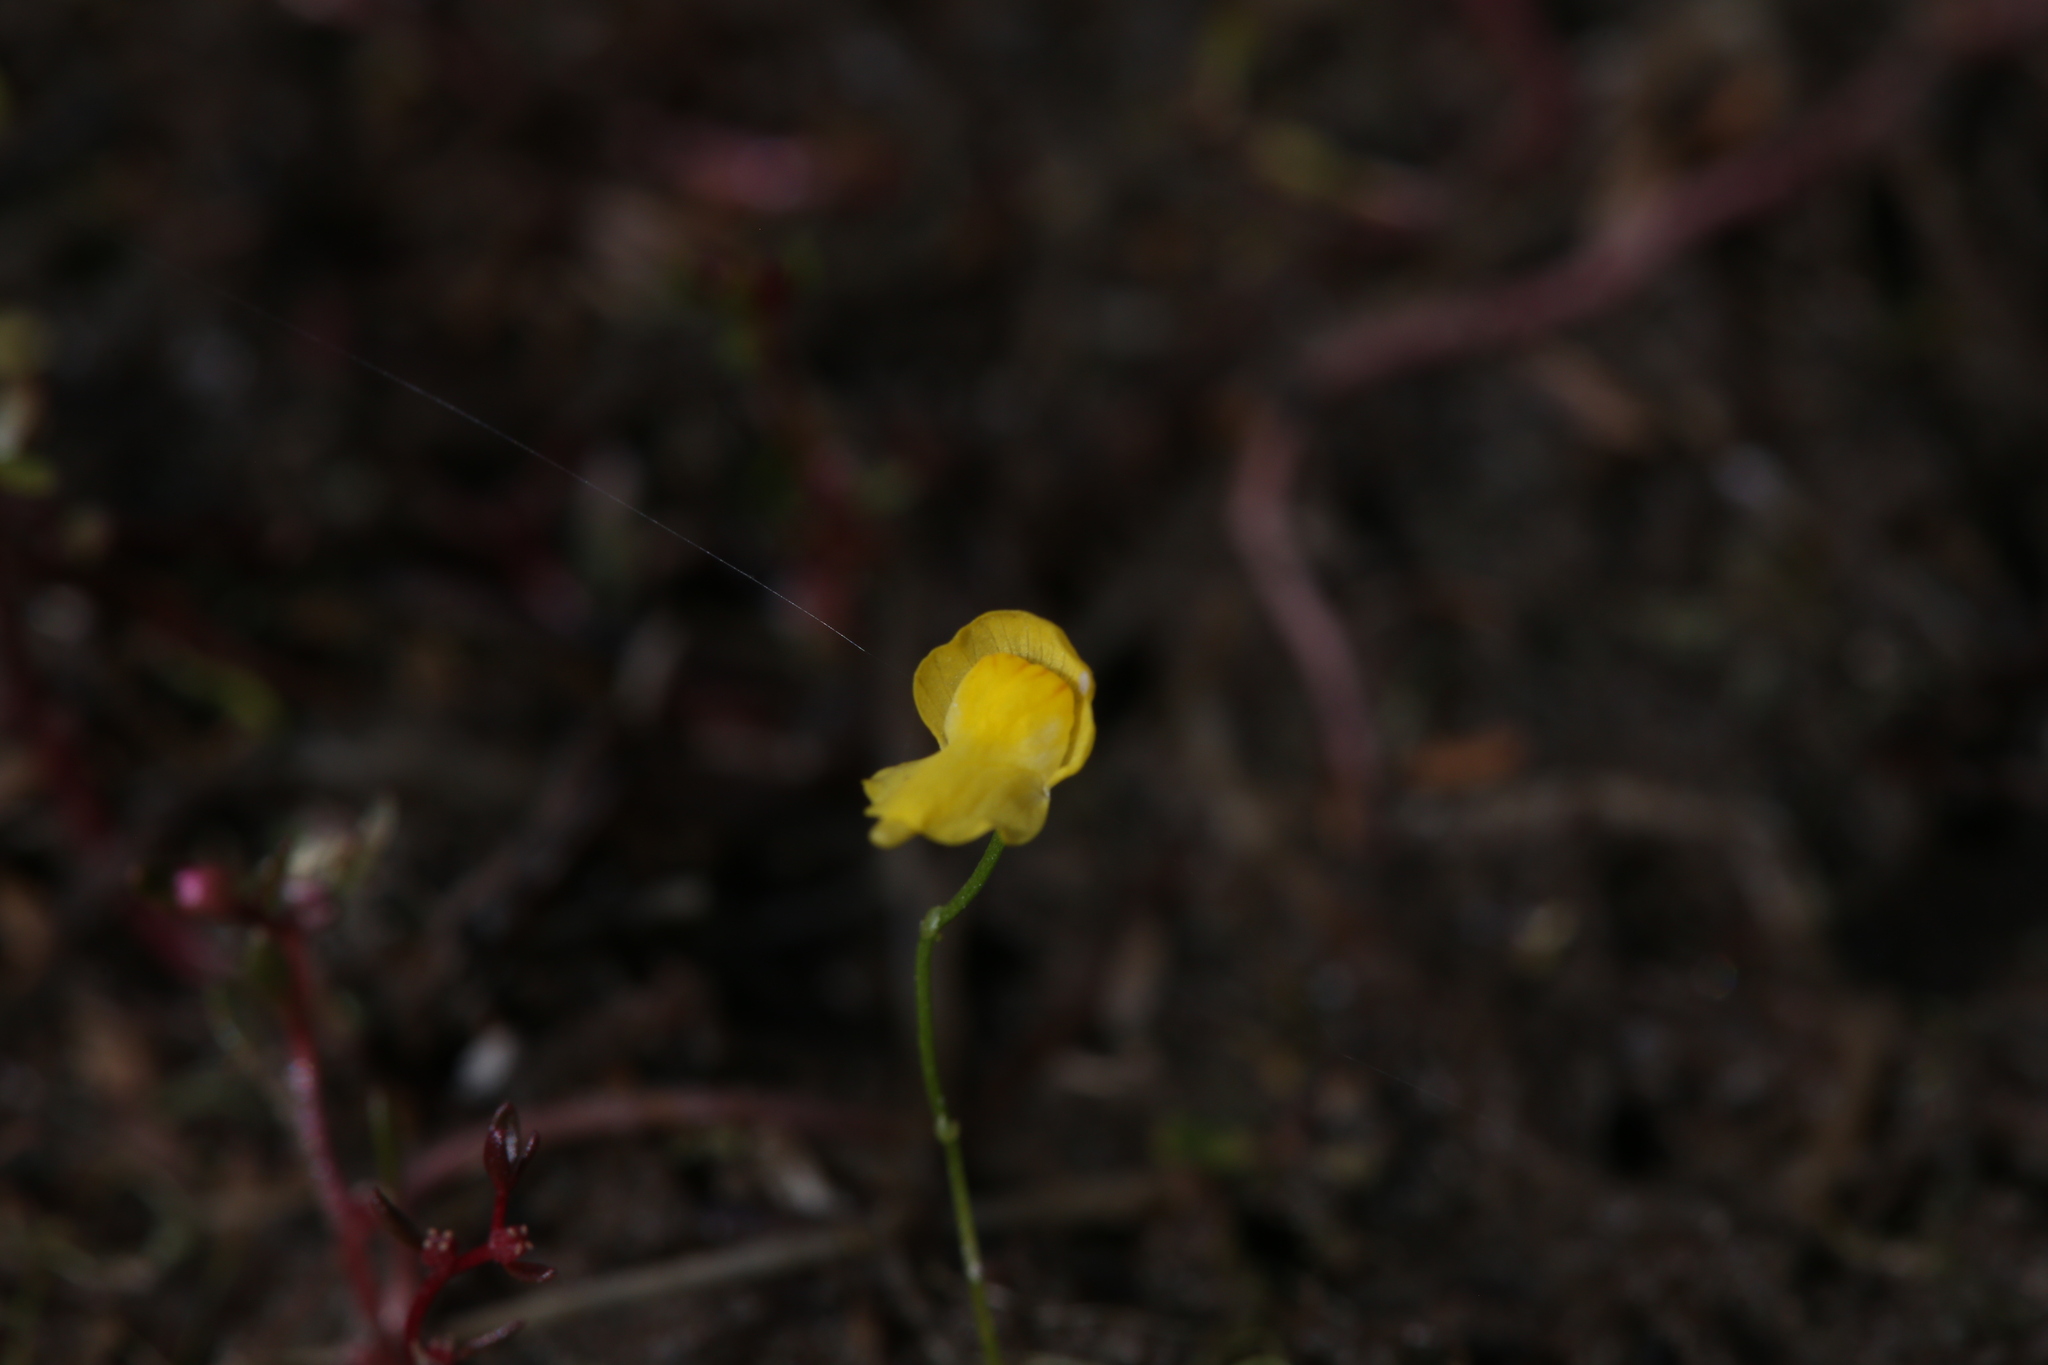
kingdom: Plantae
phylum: Tracheophyta
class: Magnoliopsida
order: Lamiales
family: Lentibulariaceae
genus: Utricularia
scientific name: Utricularia gibba
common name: Humped bladderwort
